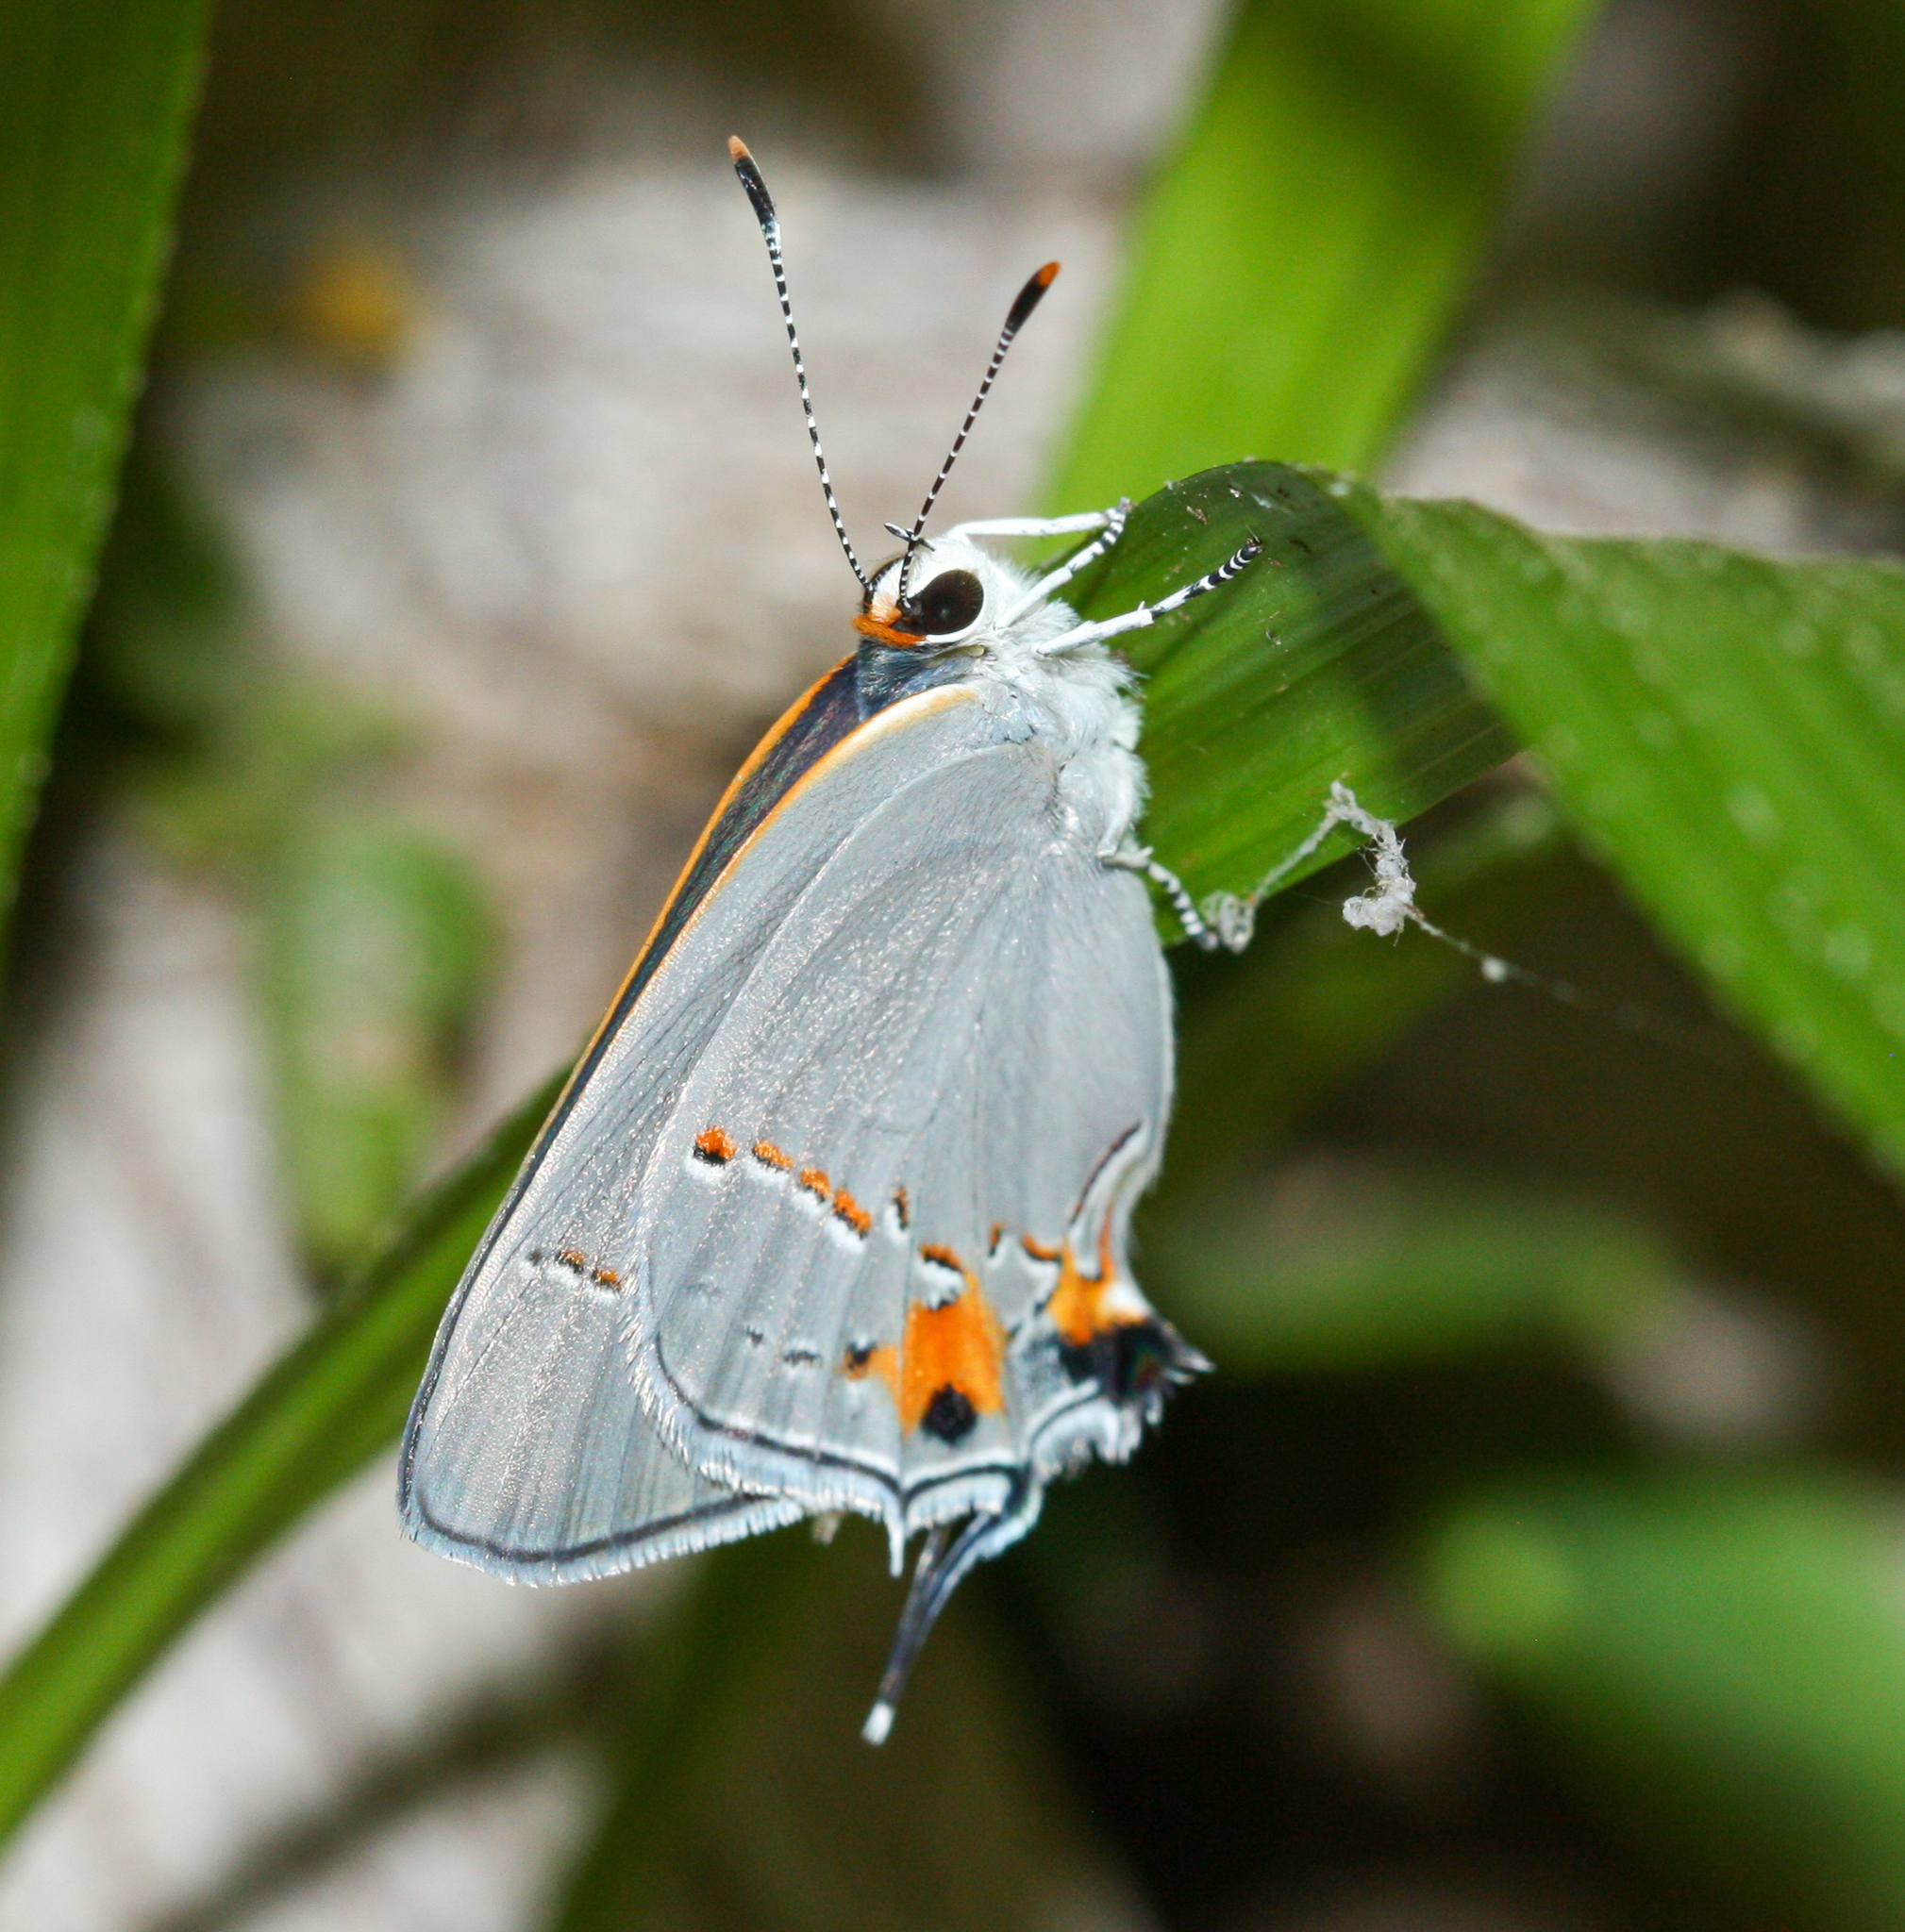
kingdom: Animalia
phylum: Arthropoda
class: Insecta
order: Lepidoptera
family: Lycaenidae
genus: Strymon
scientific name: Strymon melinus
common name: Gray hairstreak
